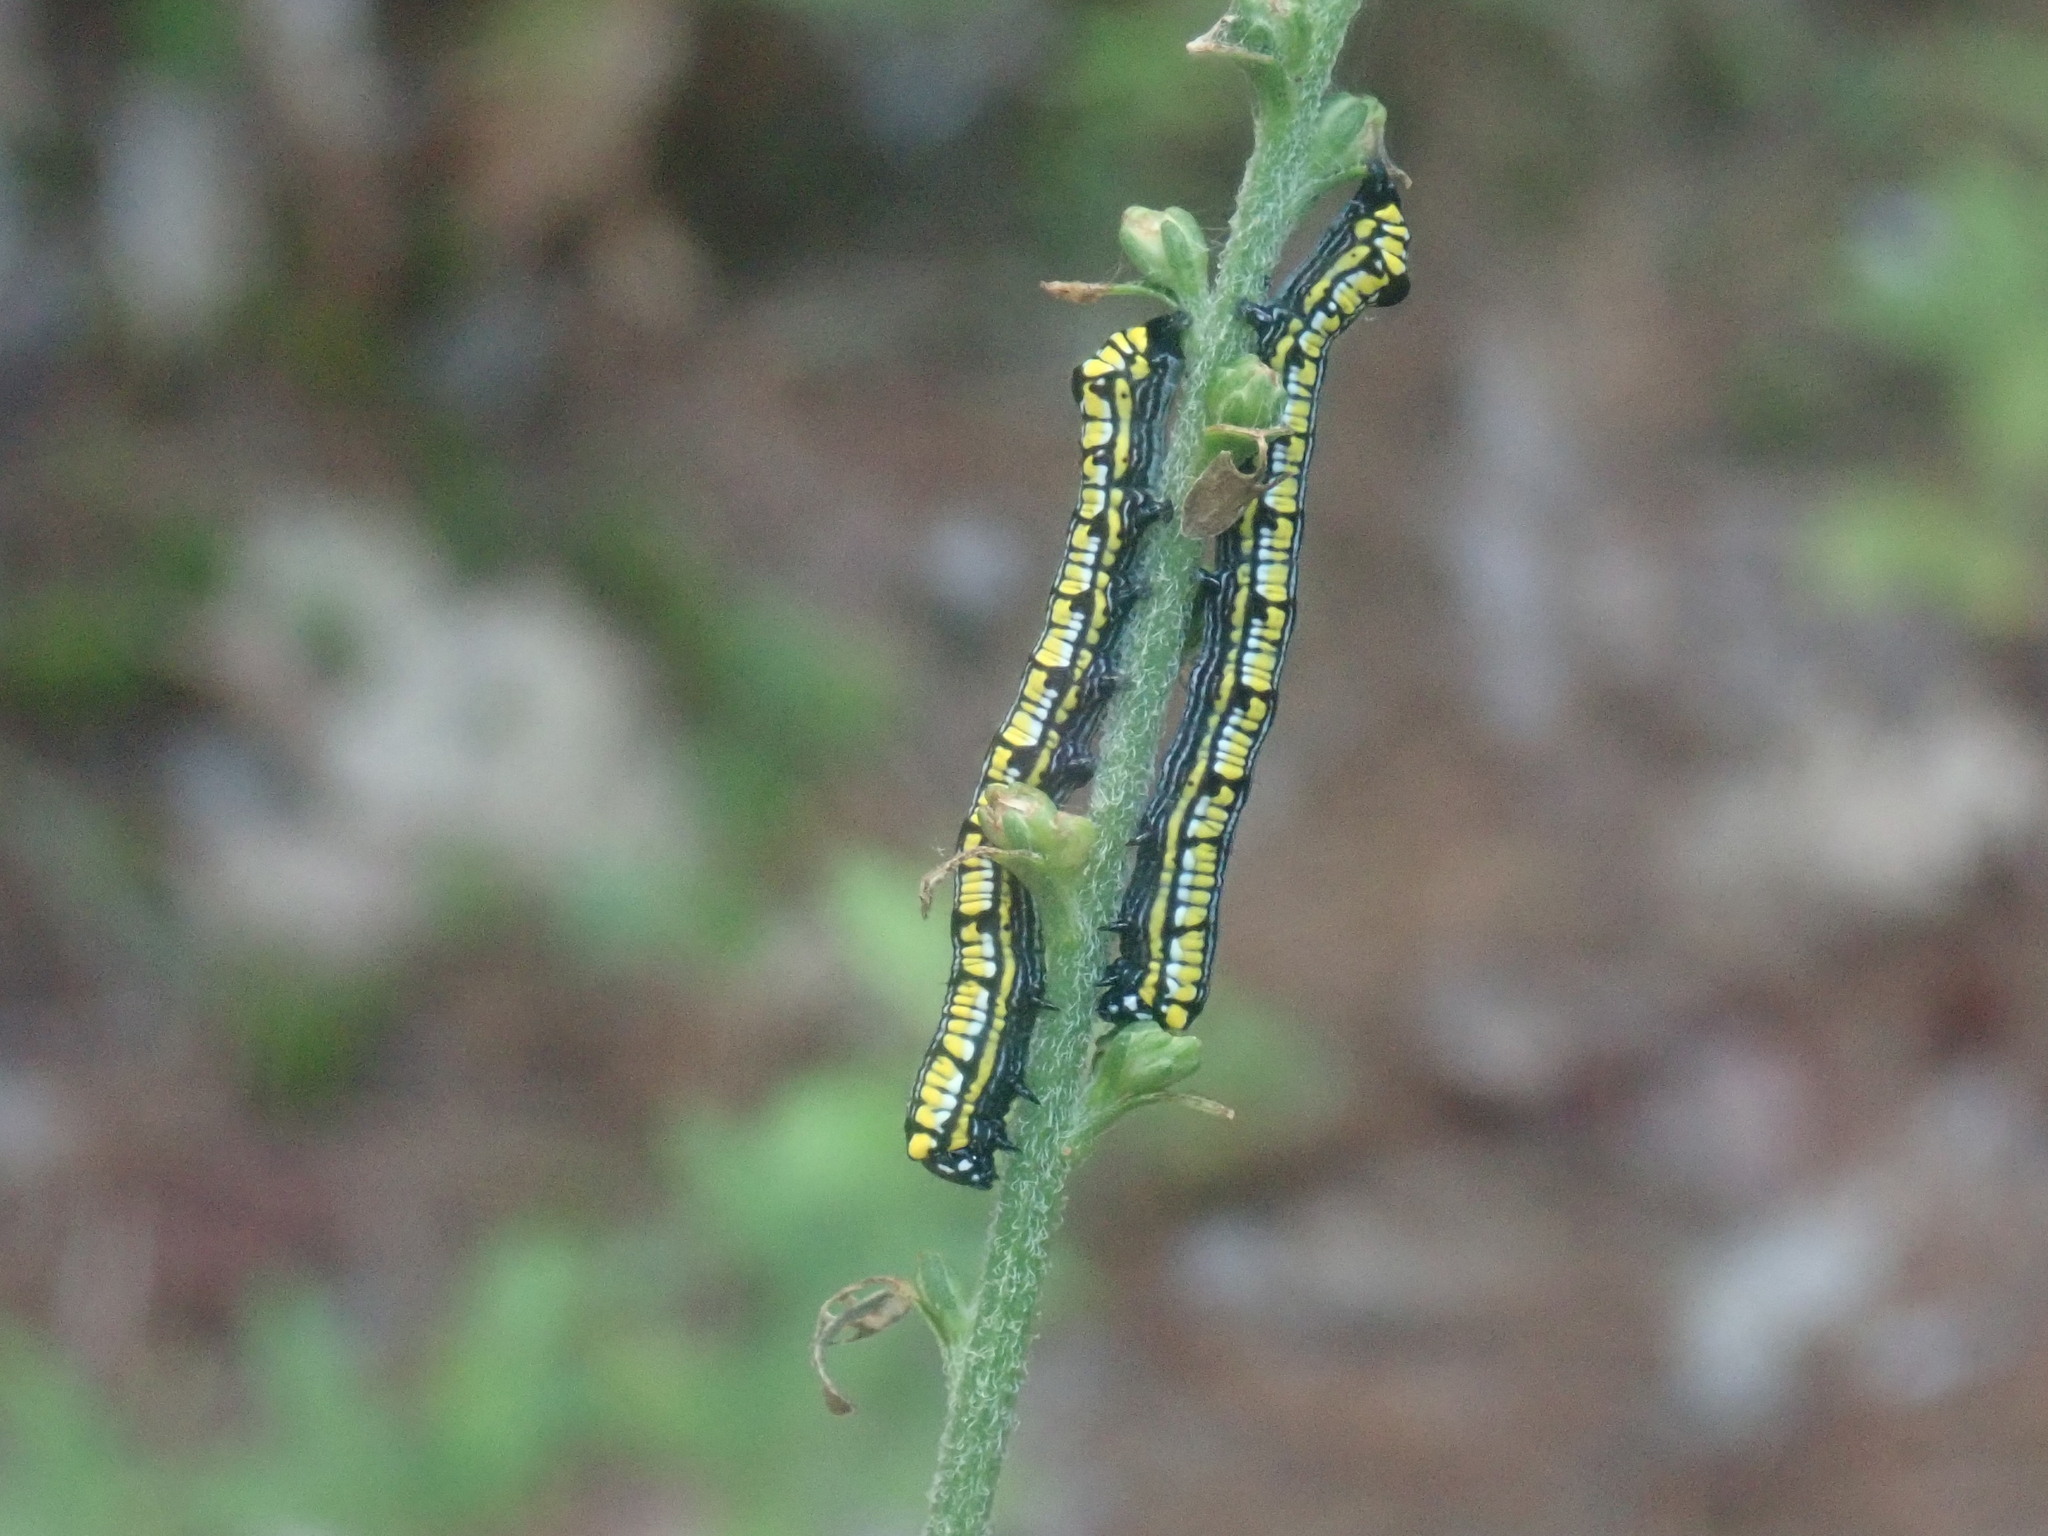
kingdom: Animalia
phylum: Arthropoda
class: Insecta
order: Lepidoptera
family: Noctuidae
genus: Cucullia
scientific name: Cucullia convexipennis
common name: Brown-hooded owlet
